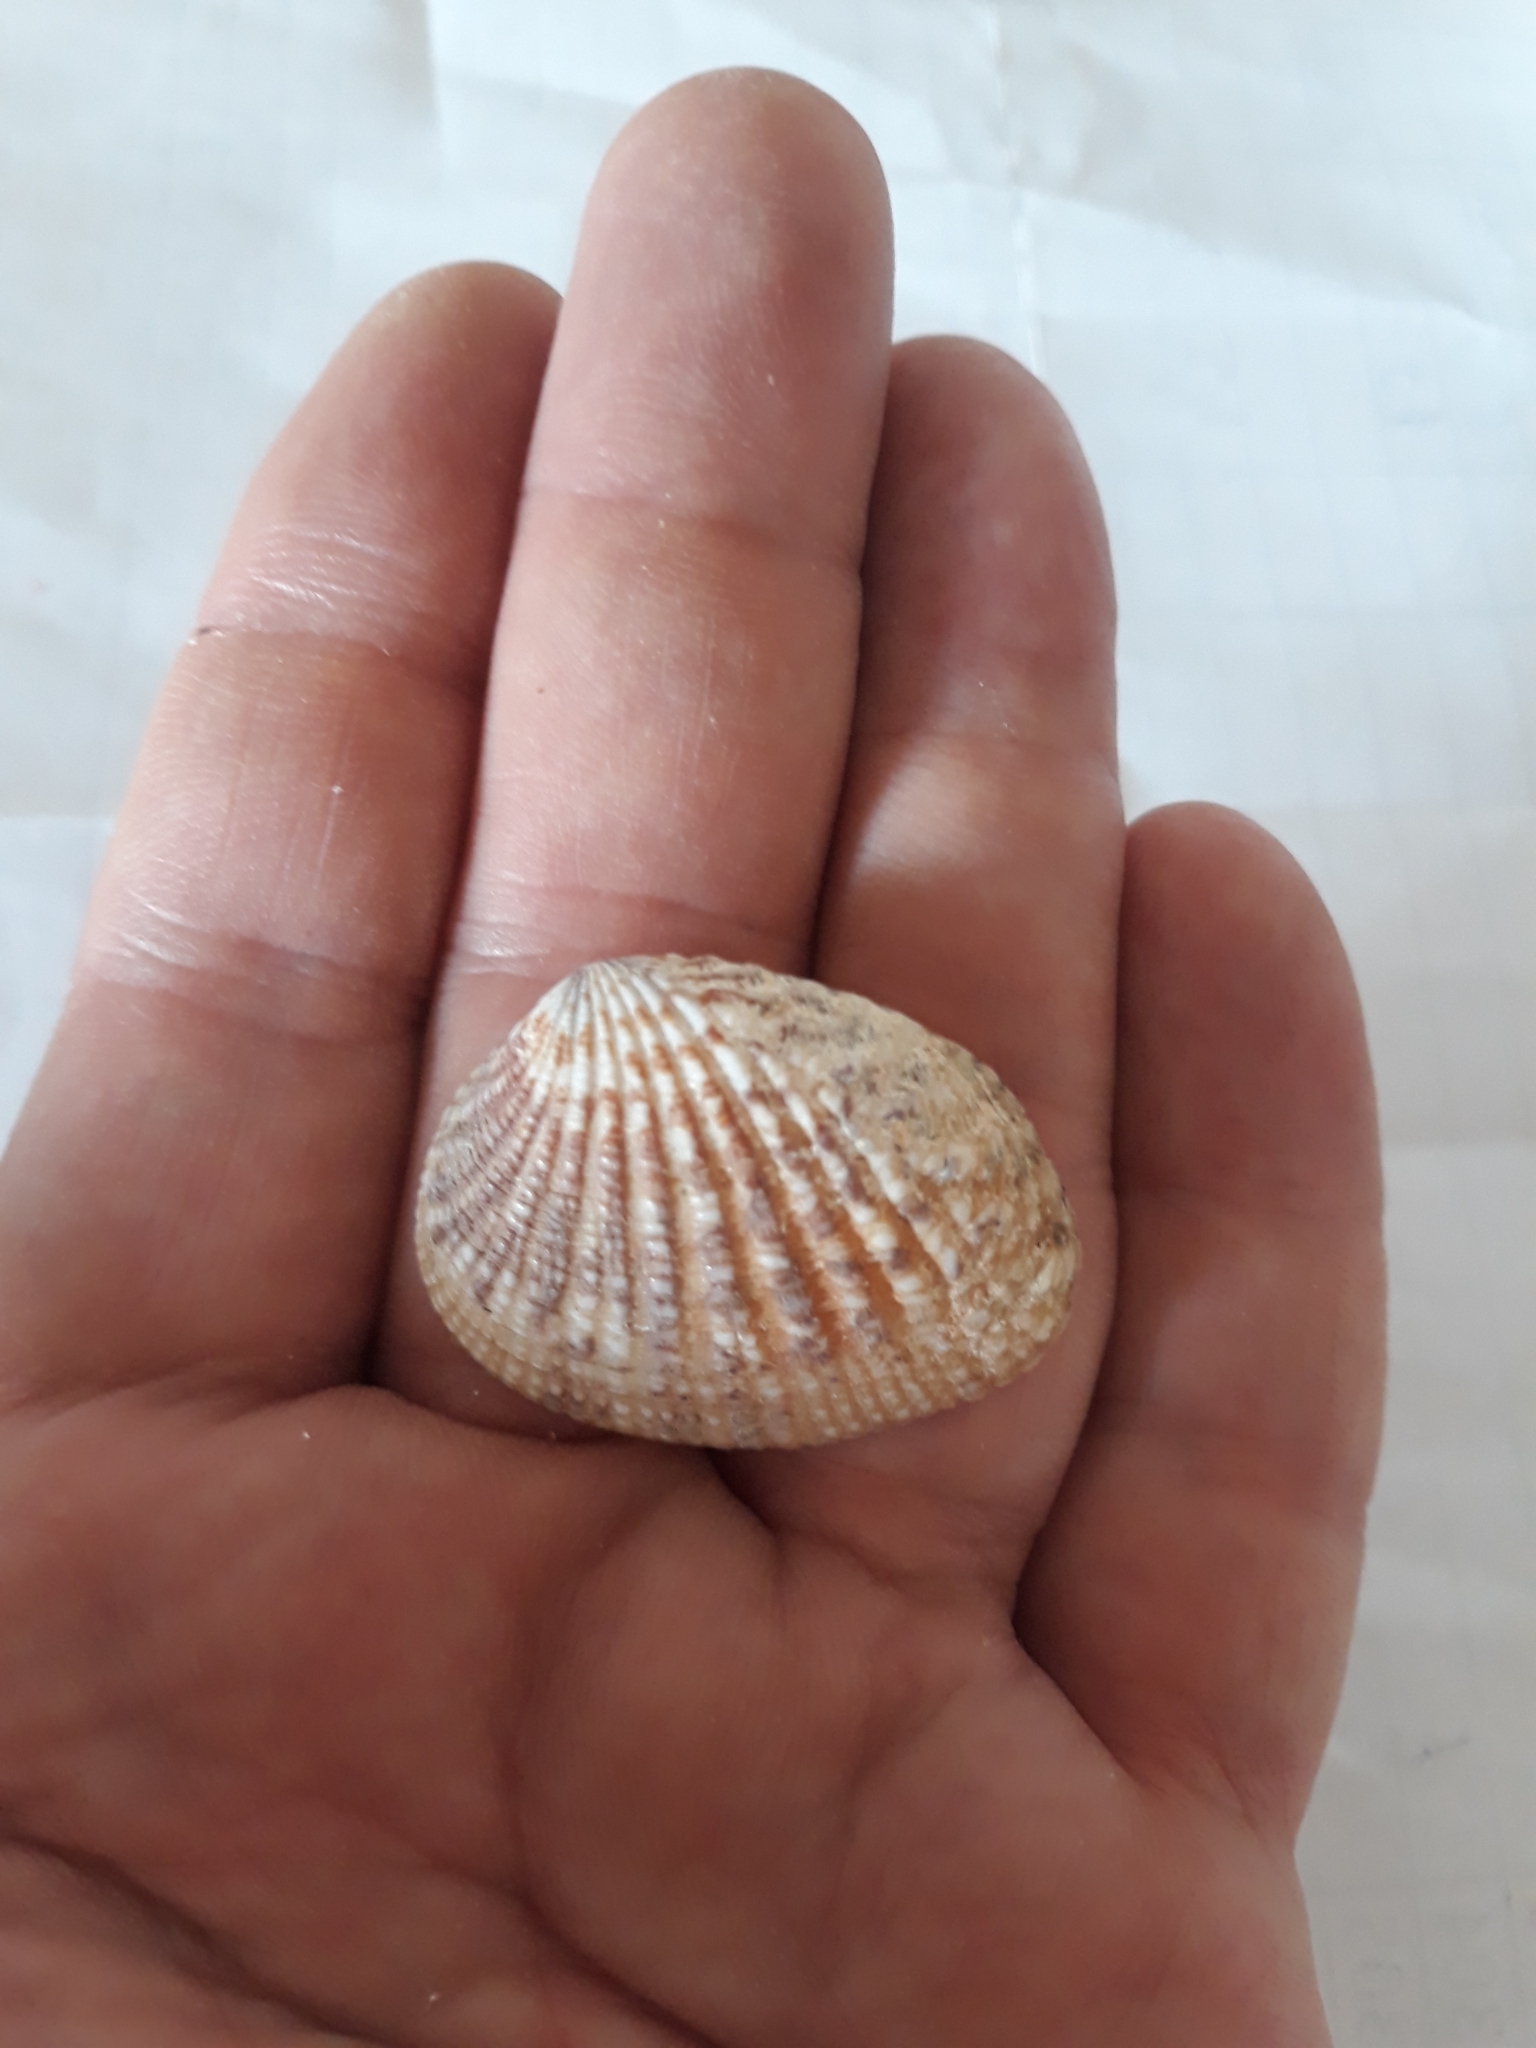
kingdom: Animalia
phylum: Mollusca
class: Bivalvia
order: Venerida
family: Veneridae
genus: Gafrarium
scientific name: Gafrarium pectinatum
